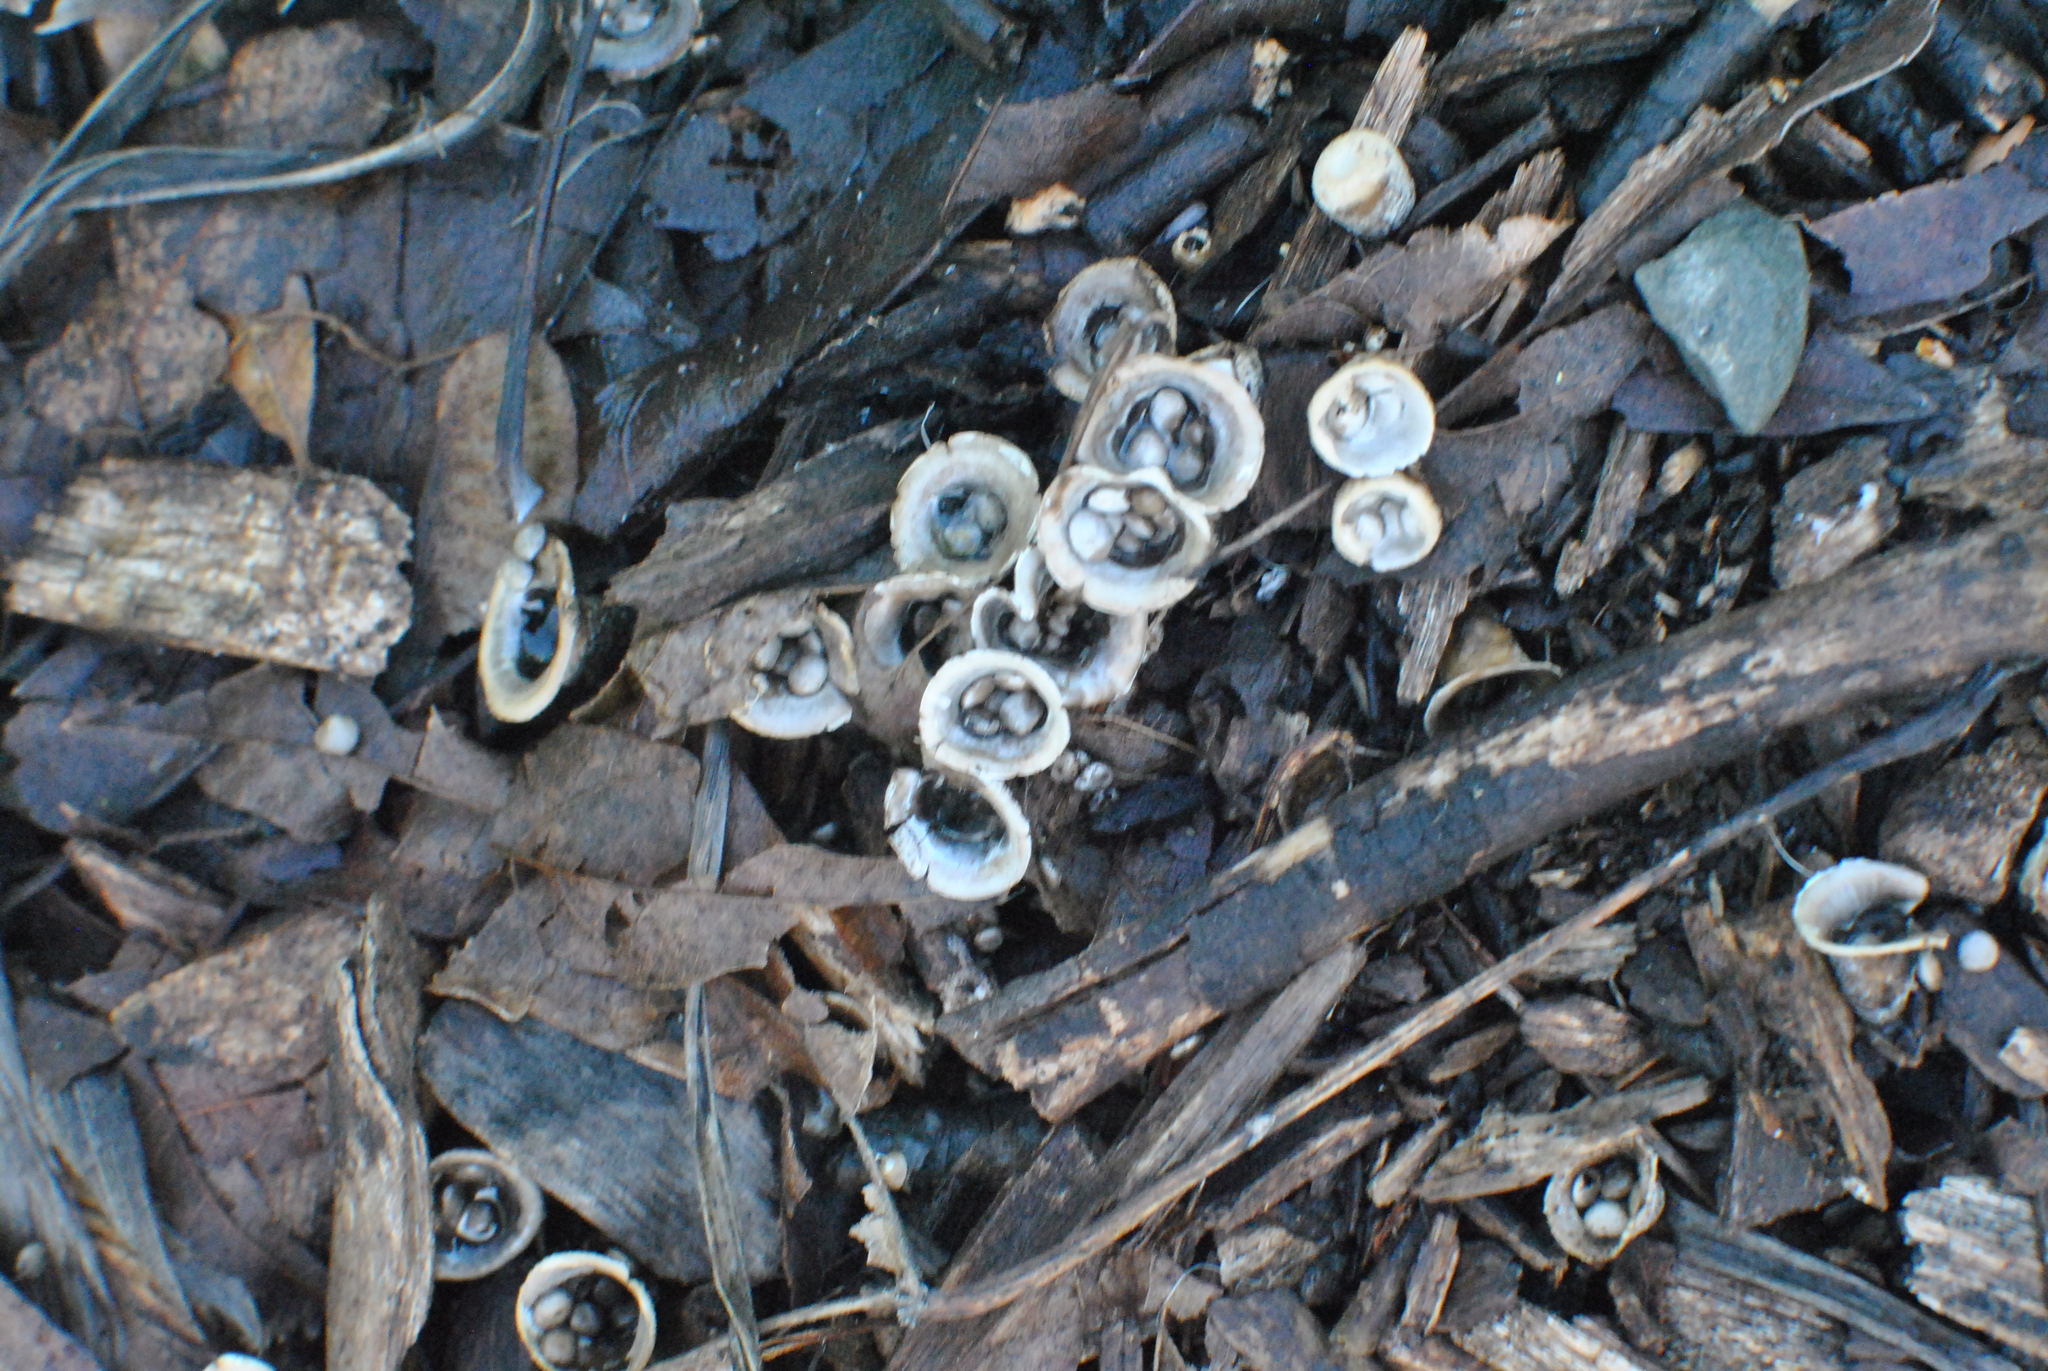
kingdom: Fungi
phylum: Basidiomycota
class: Agaricomycetes
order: Agaricales
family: Agaricaceae
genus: Cyathus
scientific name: Cyathus olla
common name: Field bird's nest
